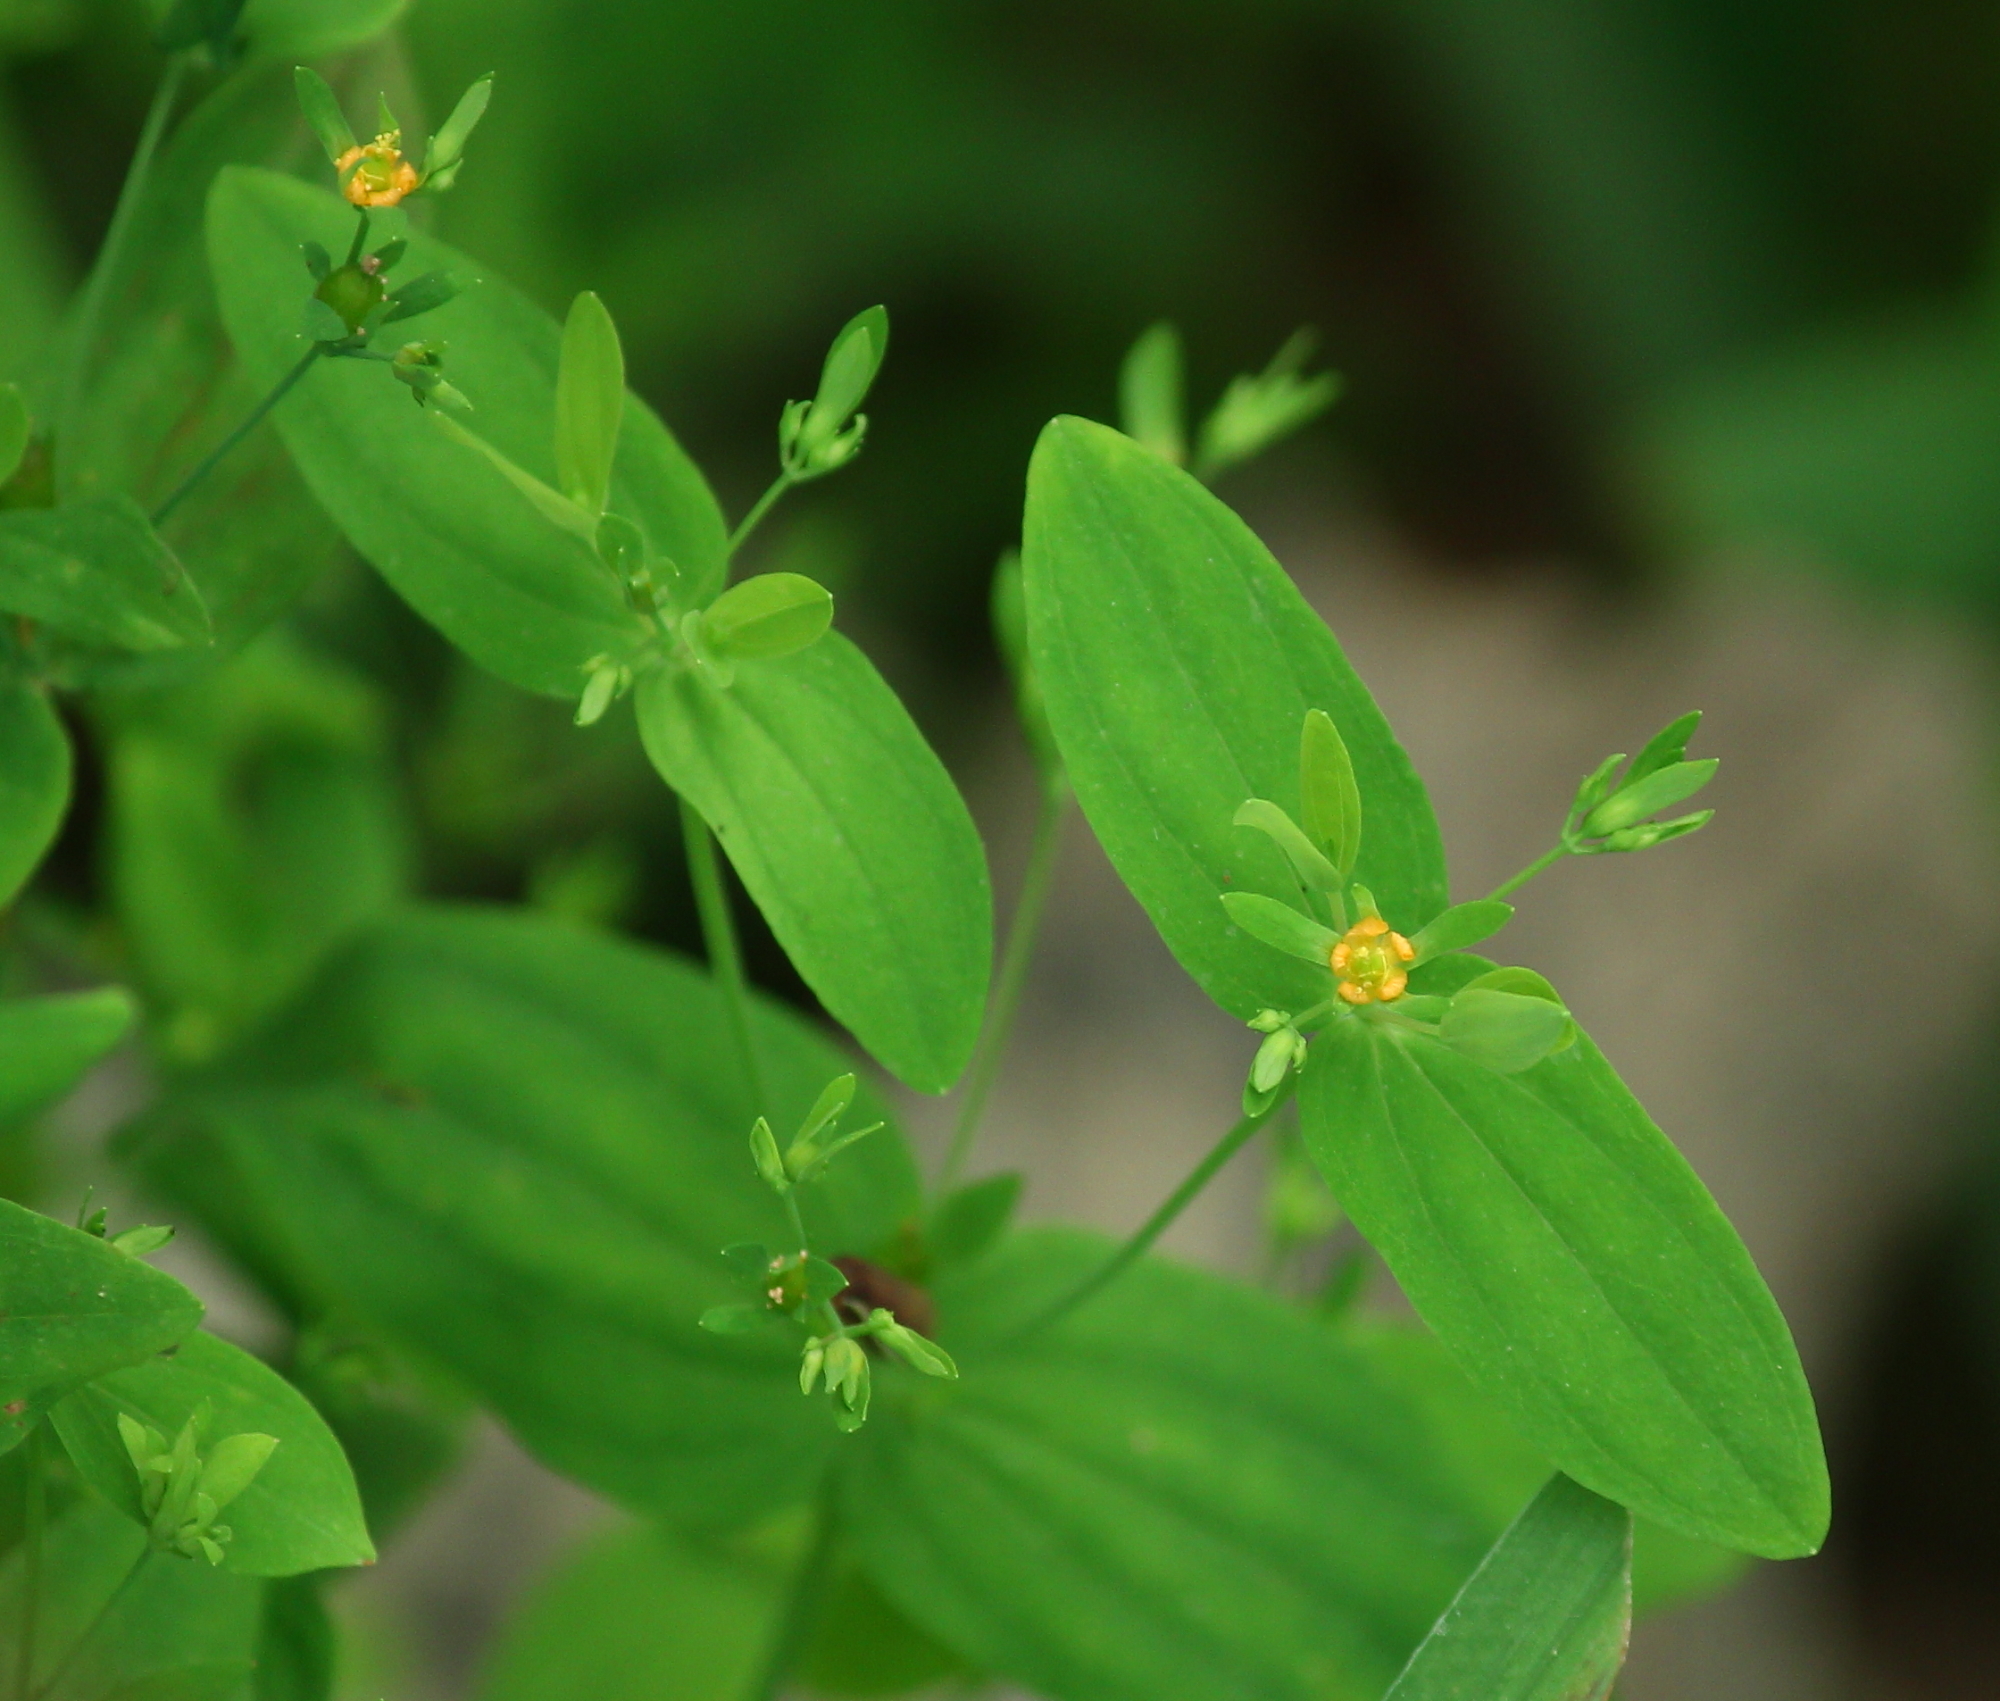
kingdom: Plantae
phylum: Tracheophyta
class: Magnoliopsida
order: Malpighiales
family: Hypericaceae
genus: Hypericum
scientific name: Hypericum mutilum
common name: Dwarf st. john's-wort
